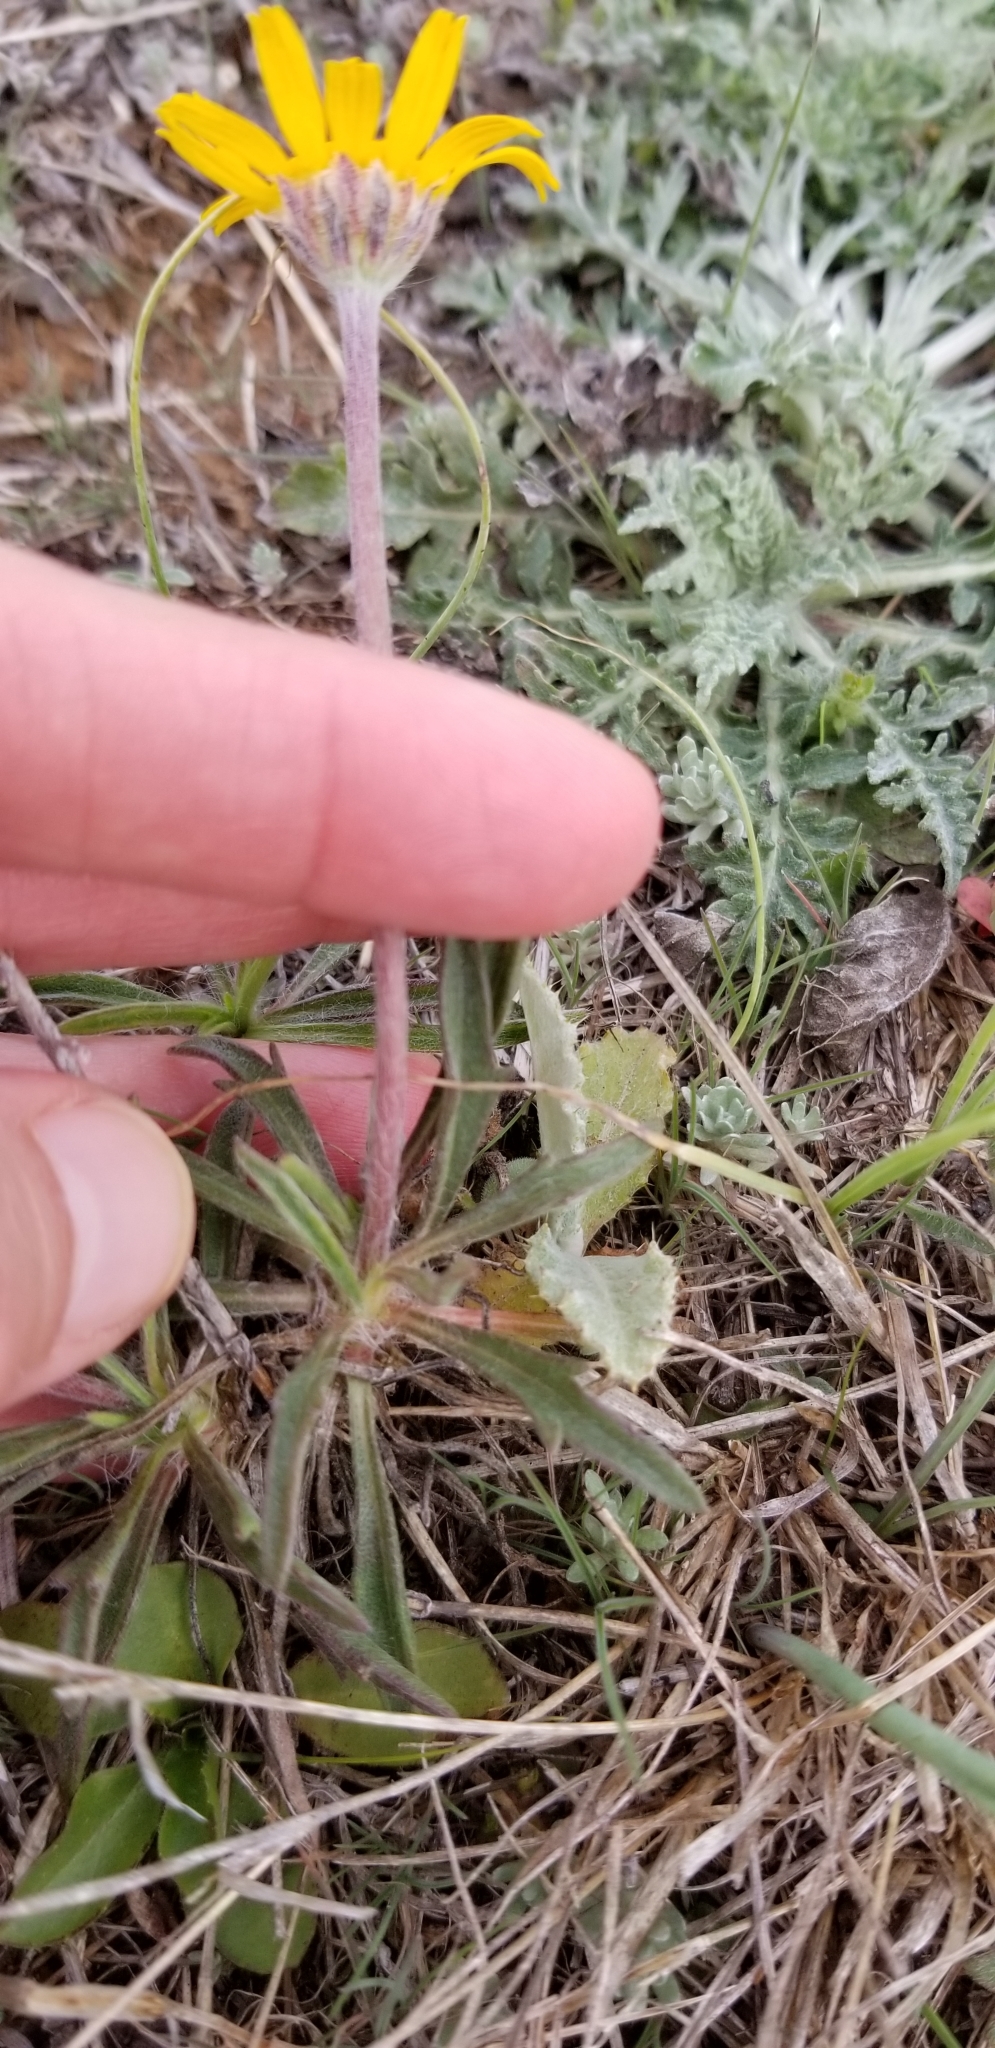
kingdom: Plantae
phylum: Tracheophyta
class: Magnoliopsida
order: Asterales
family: Asteraceae
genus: Tetraneuris
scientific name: Tetraneuris scaposa
